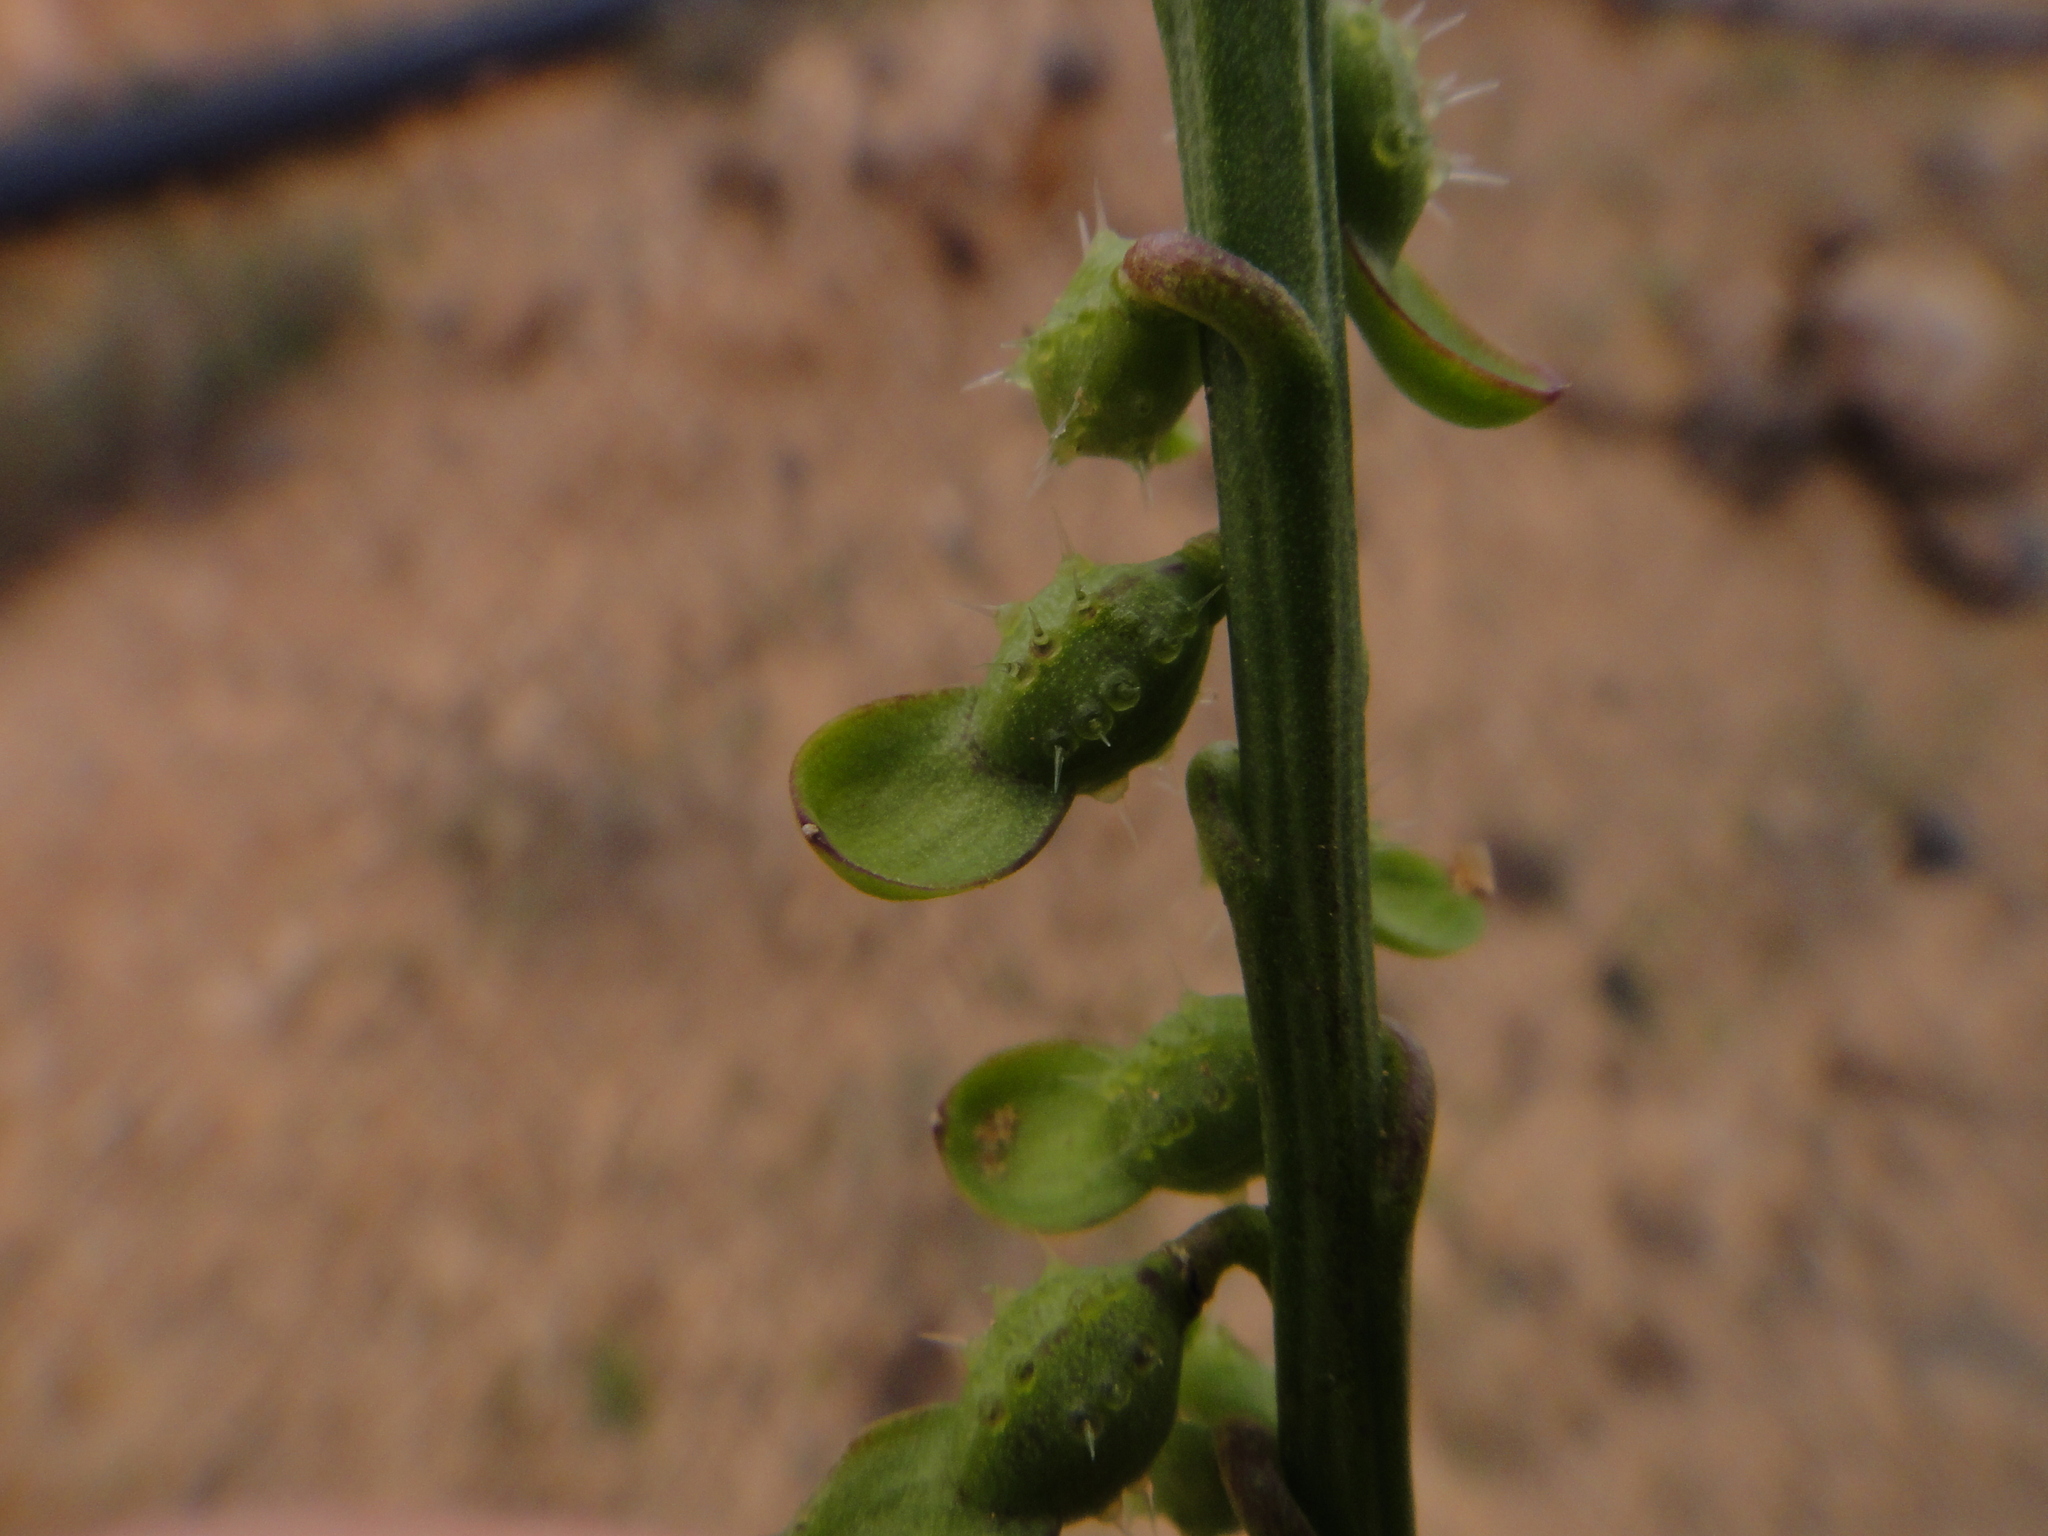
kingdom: Plantae
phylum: Tracheophyta
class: Magnoliopsida
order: Brassicales
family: Brassicaceae
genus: Carrichtera
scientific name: Carrichtera annua
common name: Cress rocket
